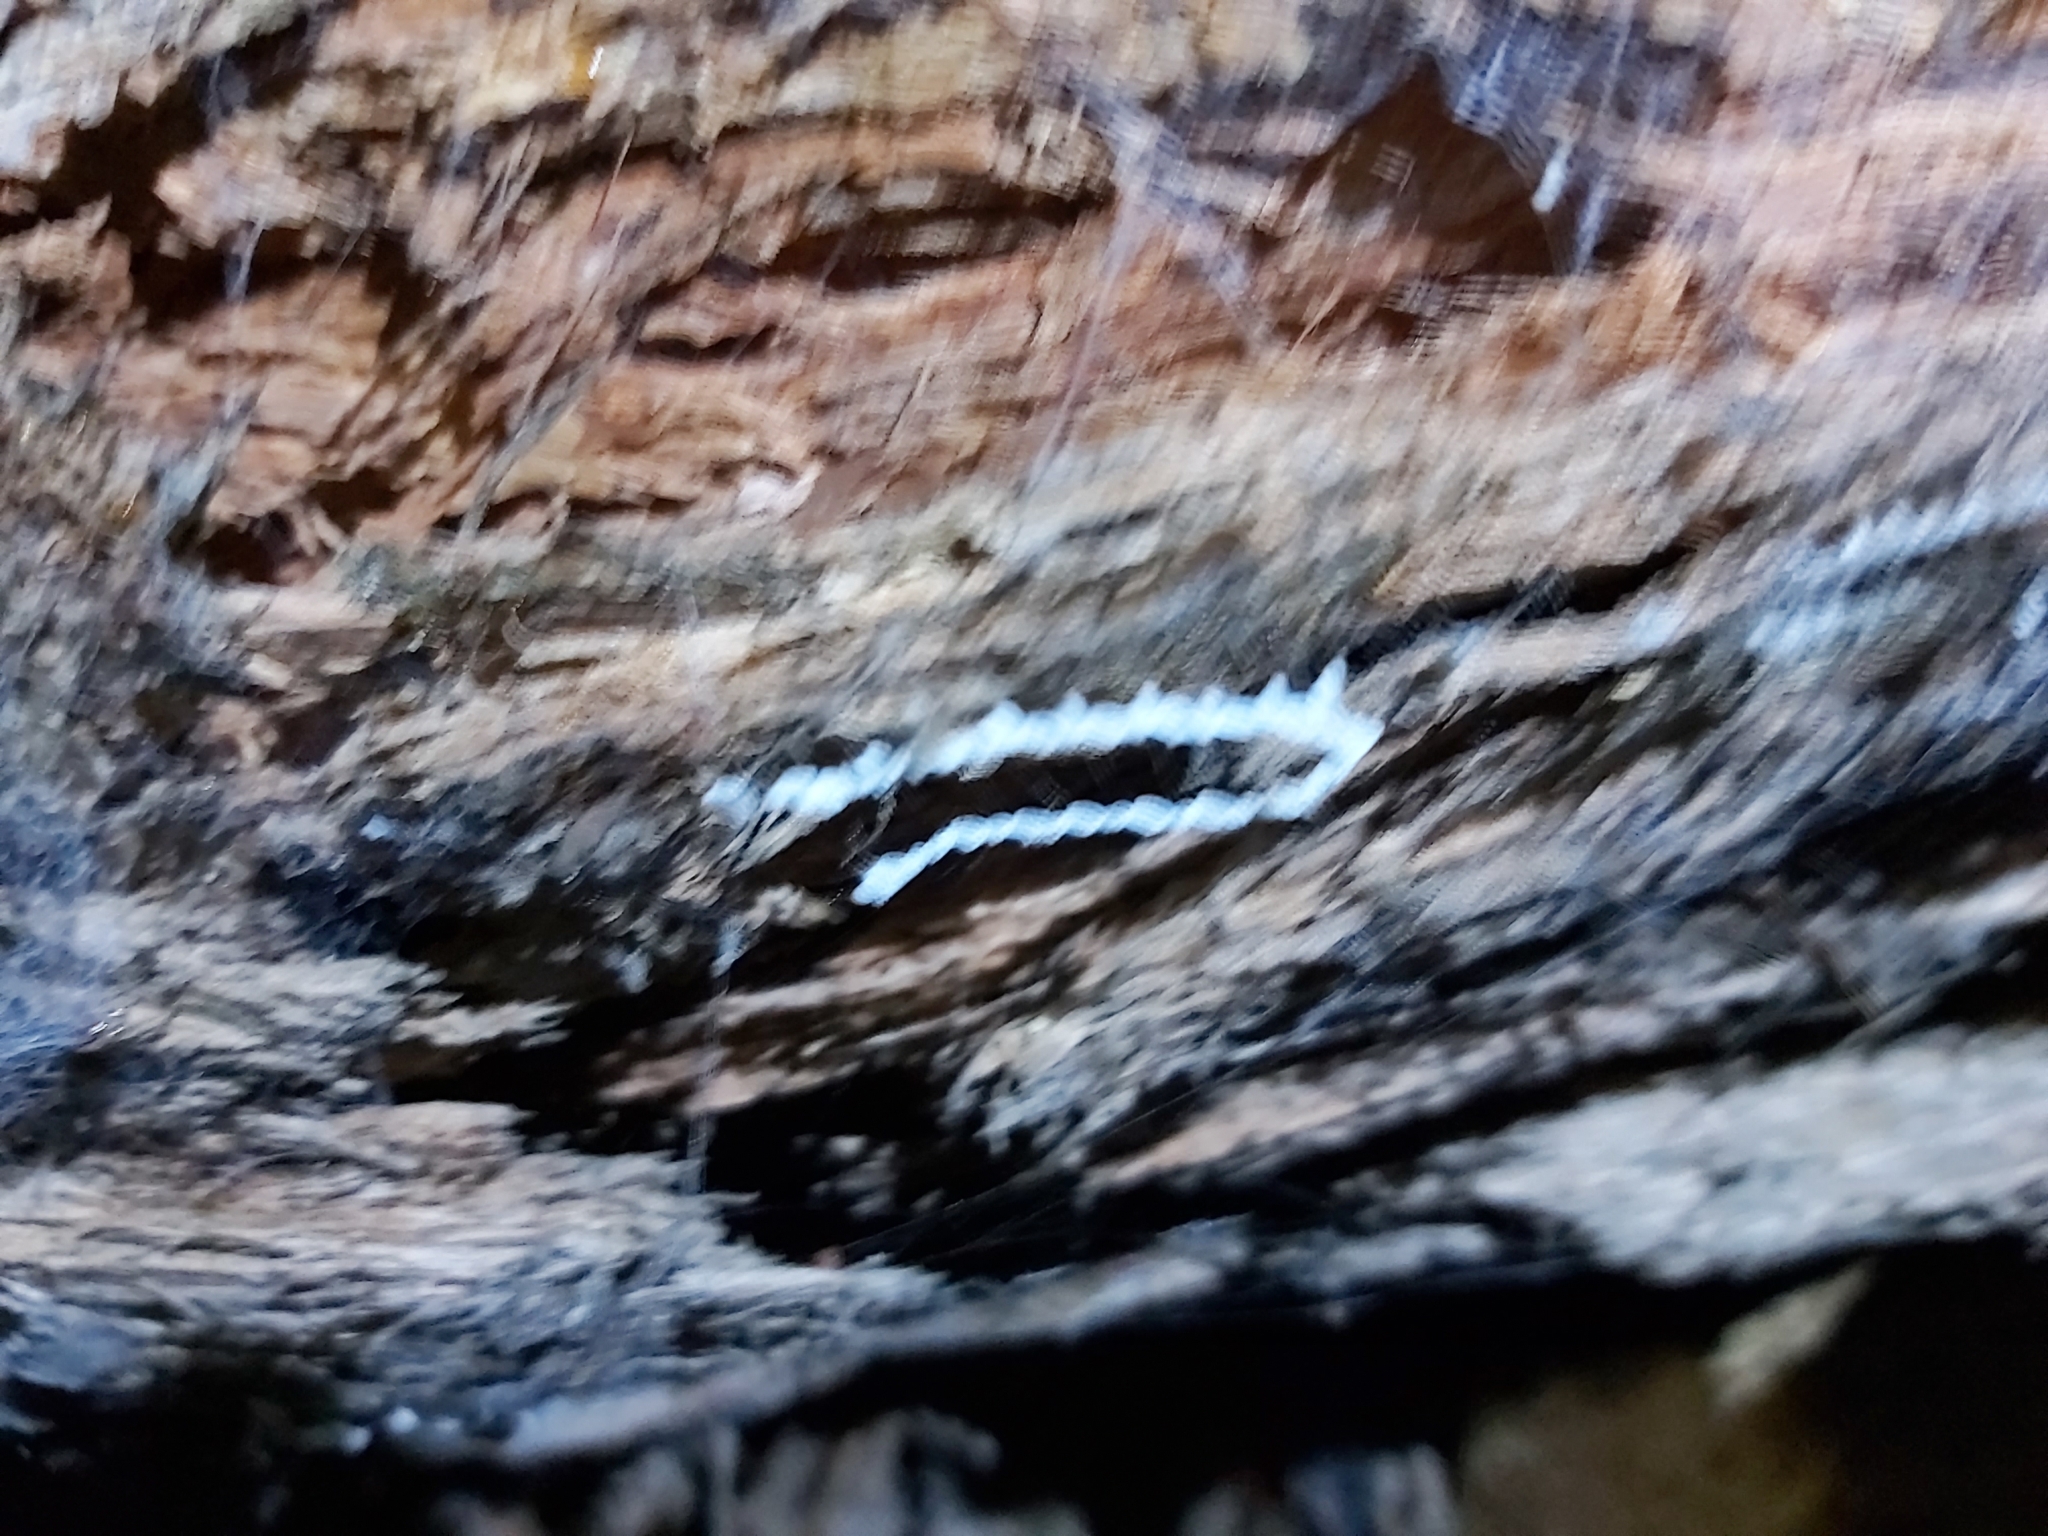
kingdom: Animalia
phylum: Arthropoda
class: Insecta
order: Neuroptera
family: Nymphidae
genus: Nymphes
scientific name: Nymphes myrmeleonoides
